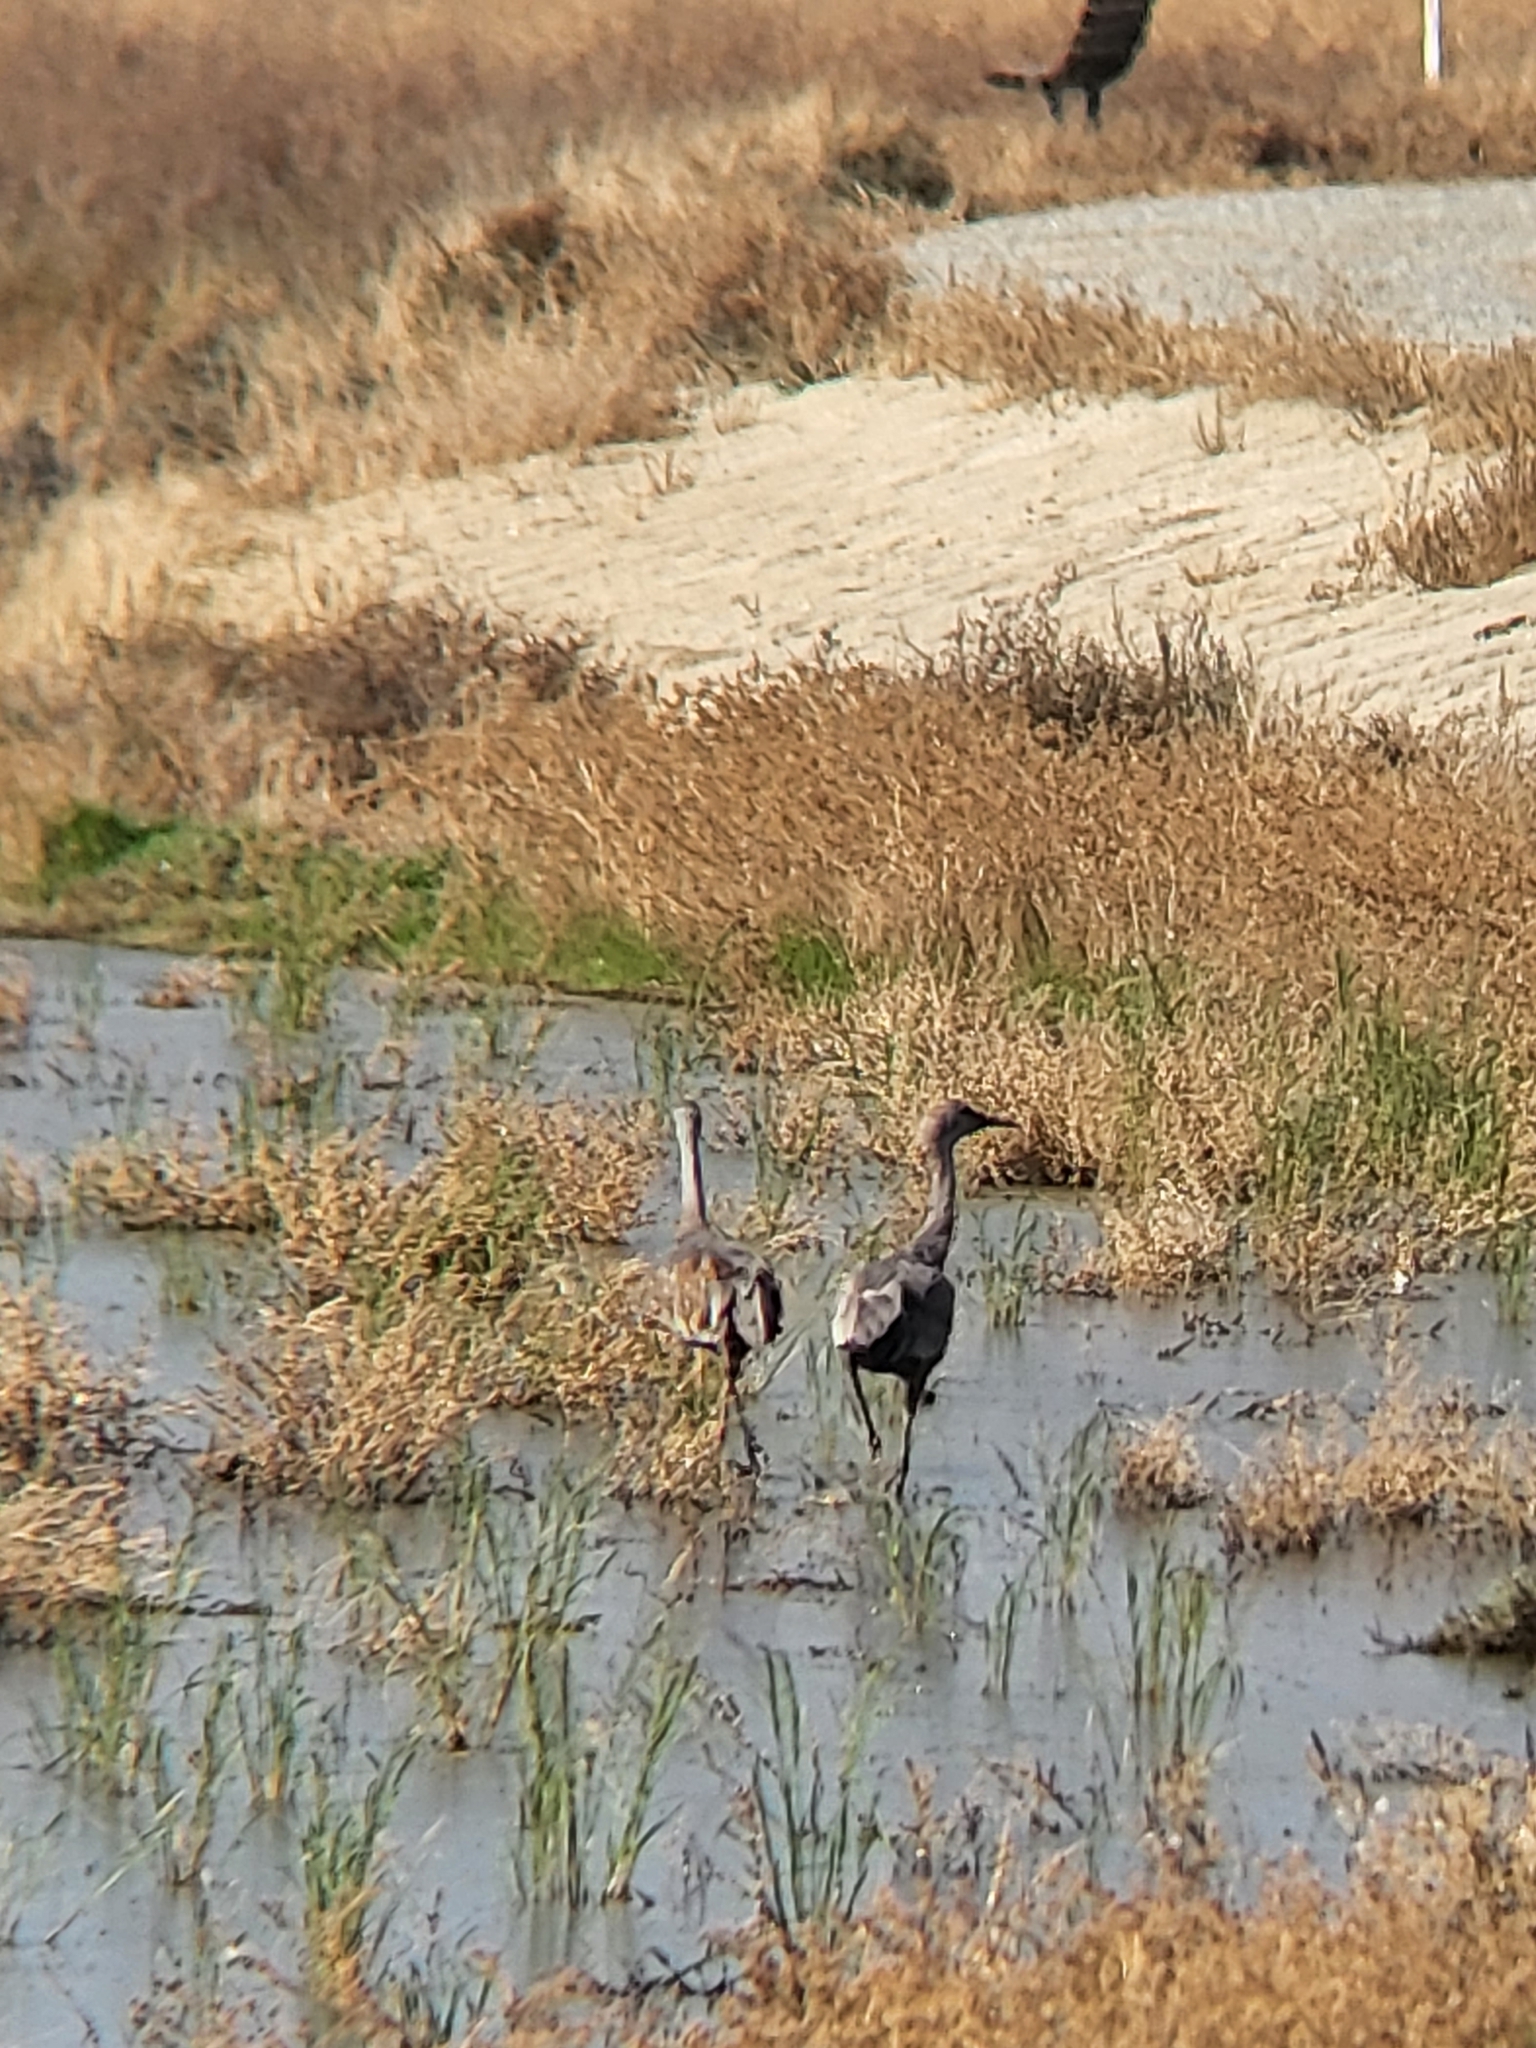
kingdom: Animalia
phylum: Chordata
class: Aves
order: Gruiformes
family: Gruidae
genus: Grus
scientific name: Grus canadensis
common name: Sandhill crane
